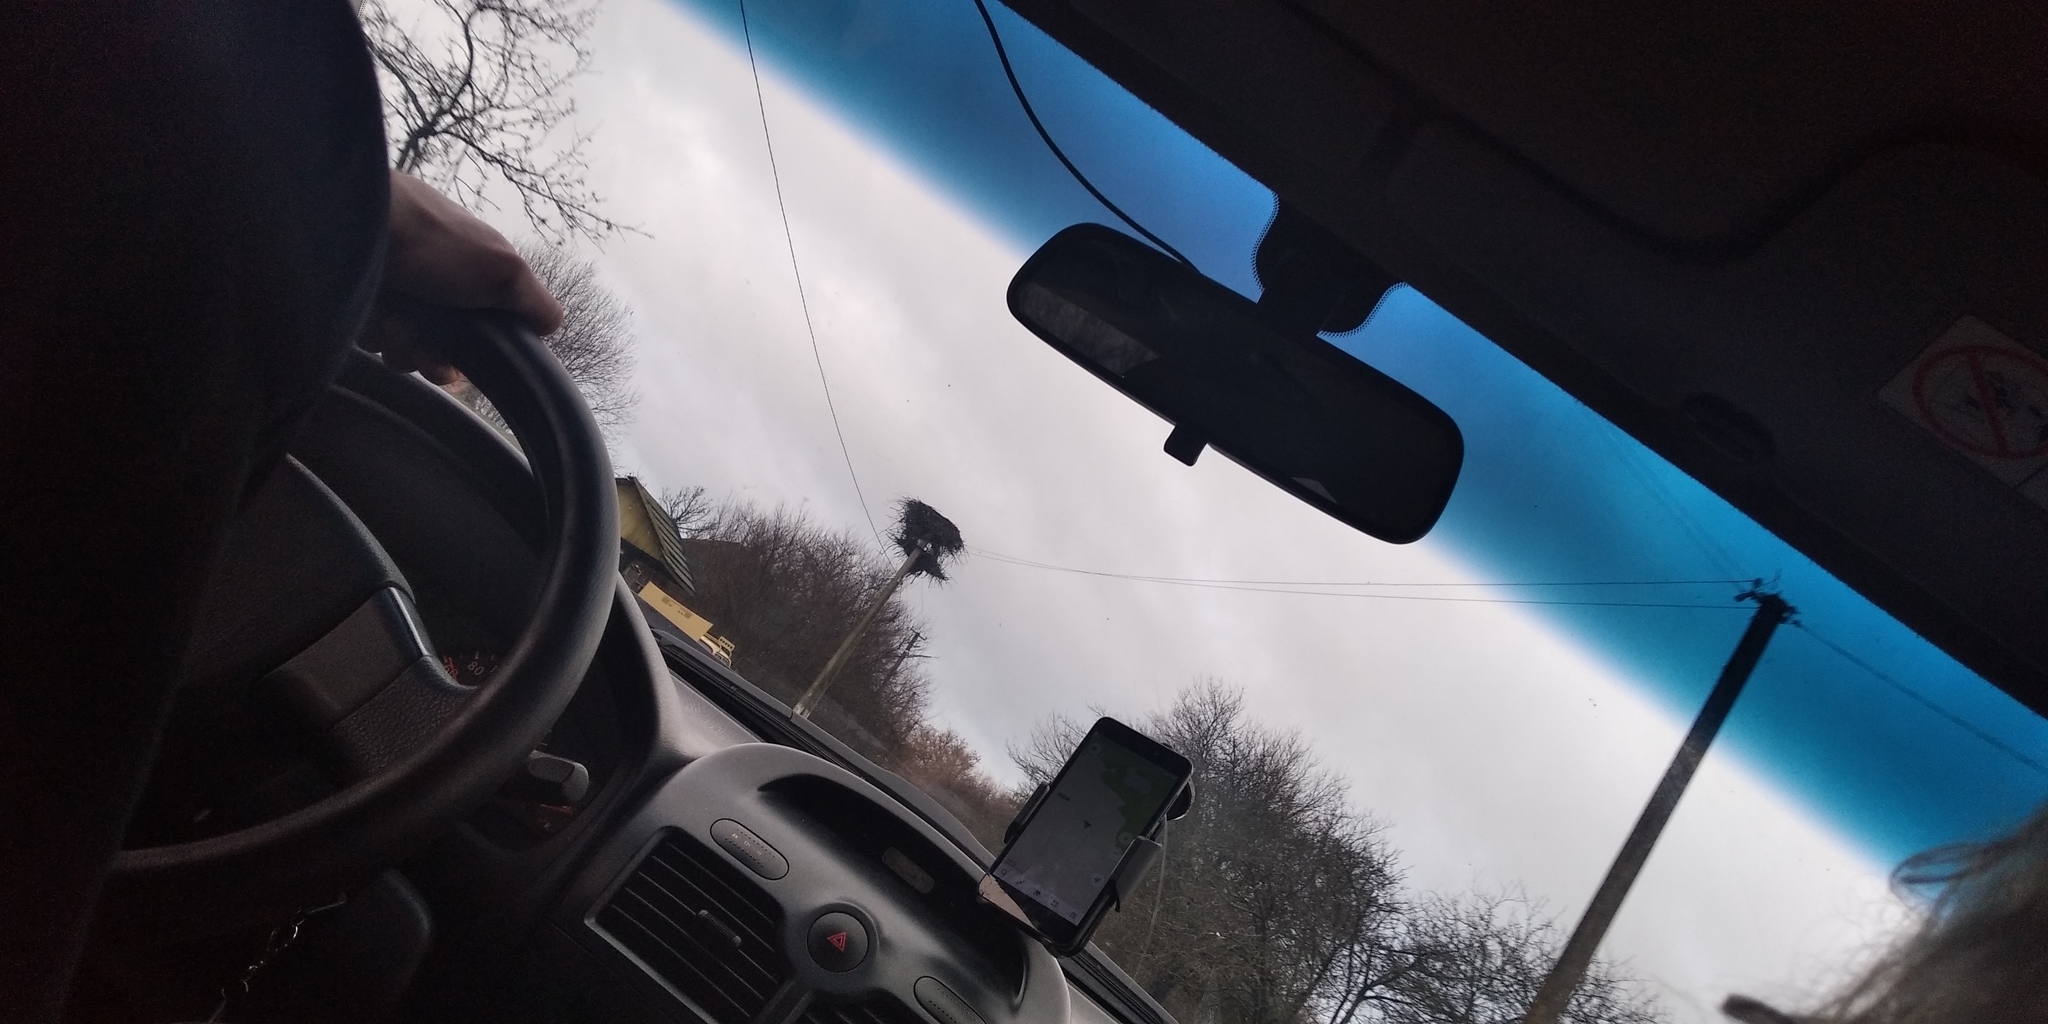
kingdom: Animalia
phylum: Chordata
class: Aves
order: Ciconiiformes
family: Ciconiidae
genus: Ciconia
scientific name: Ciconia ciconia
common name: White stork
